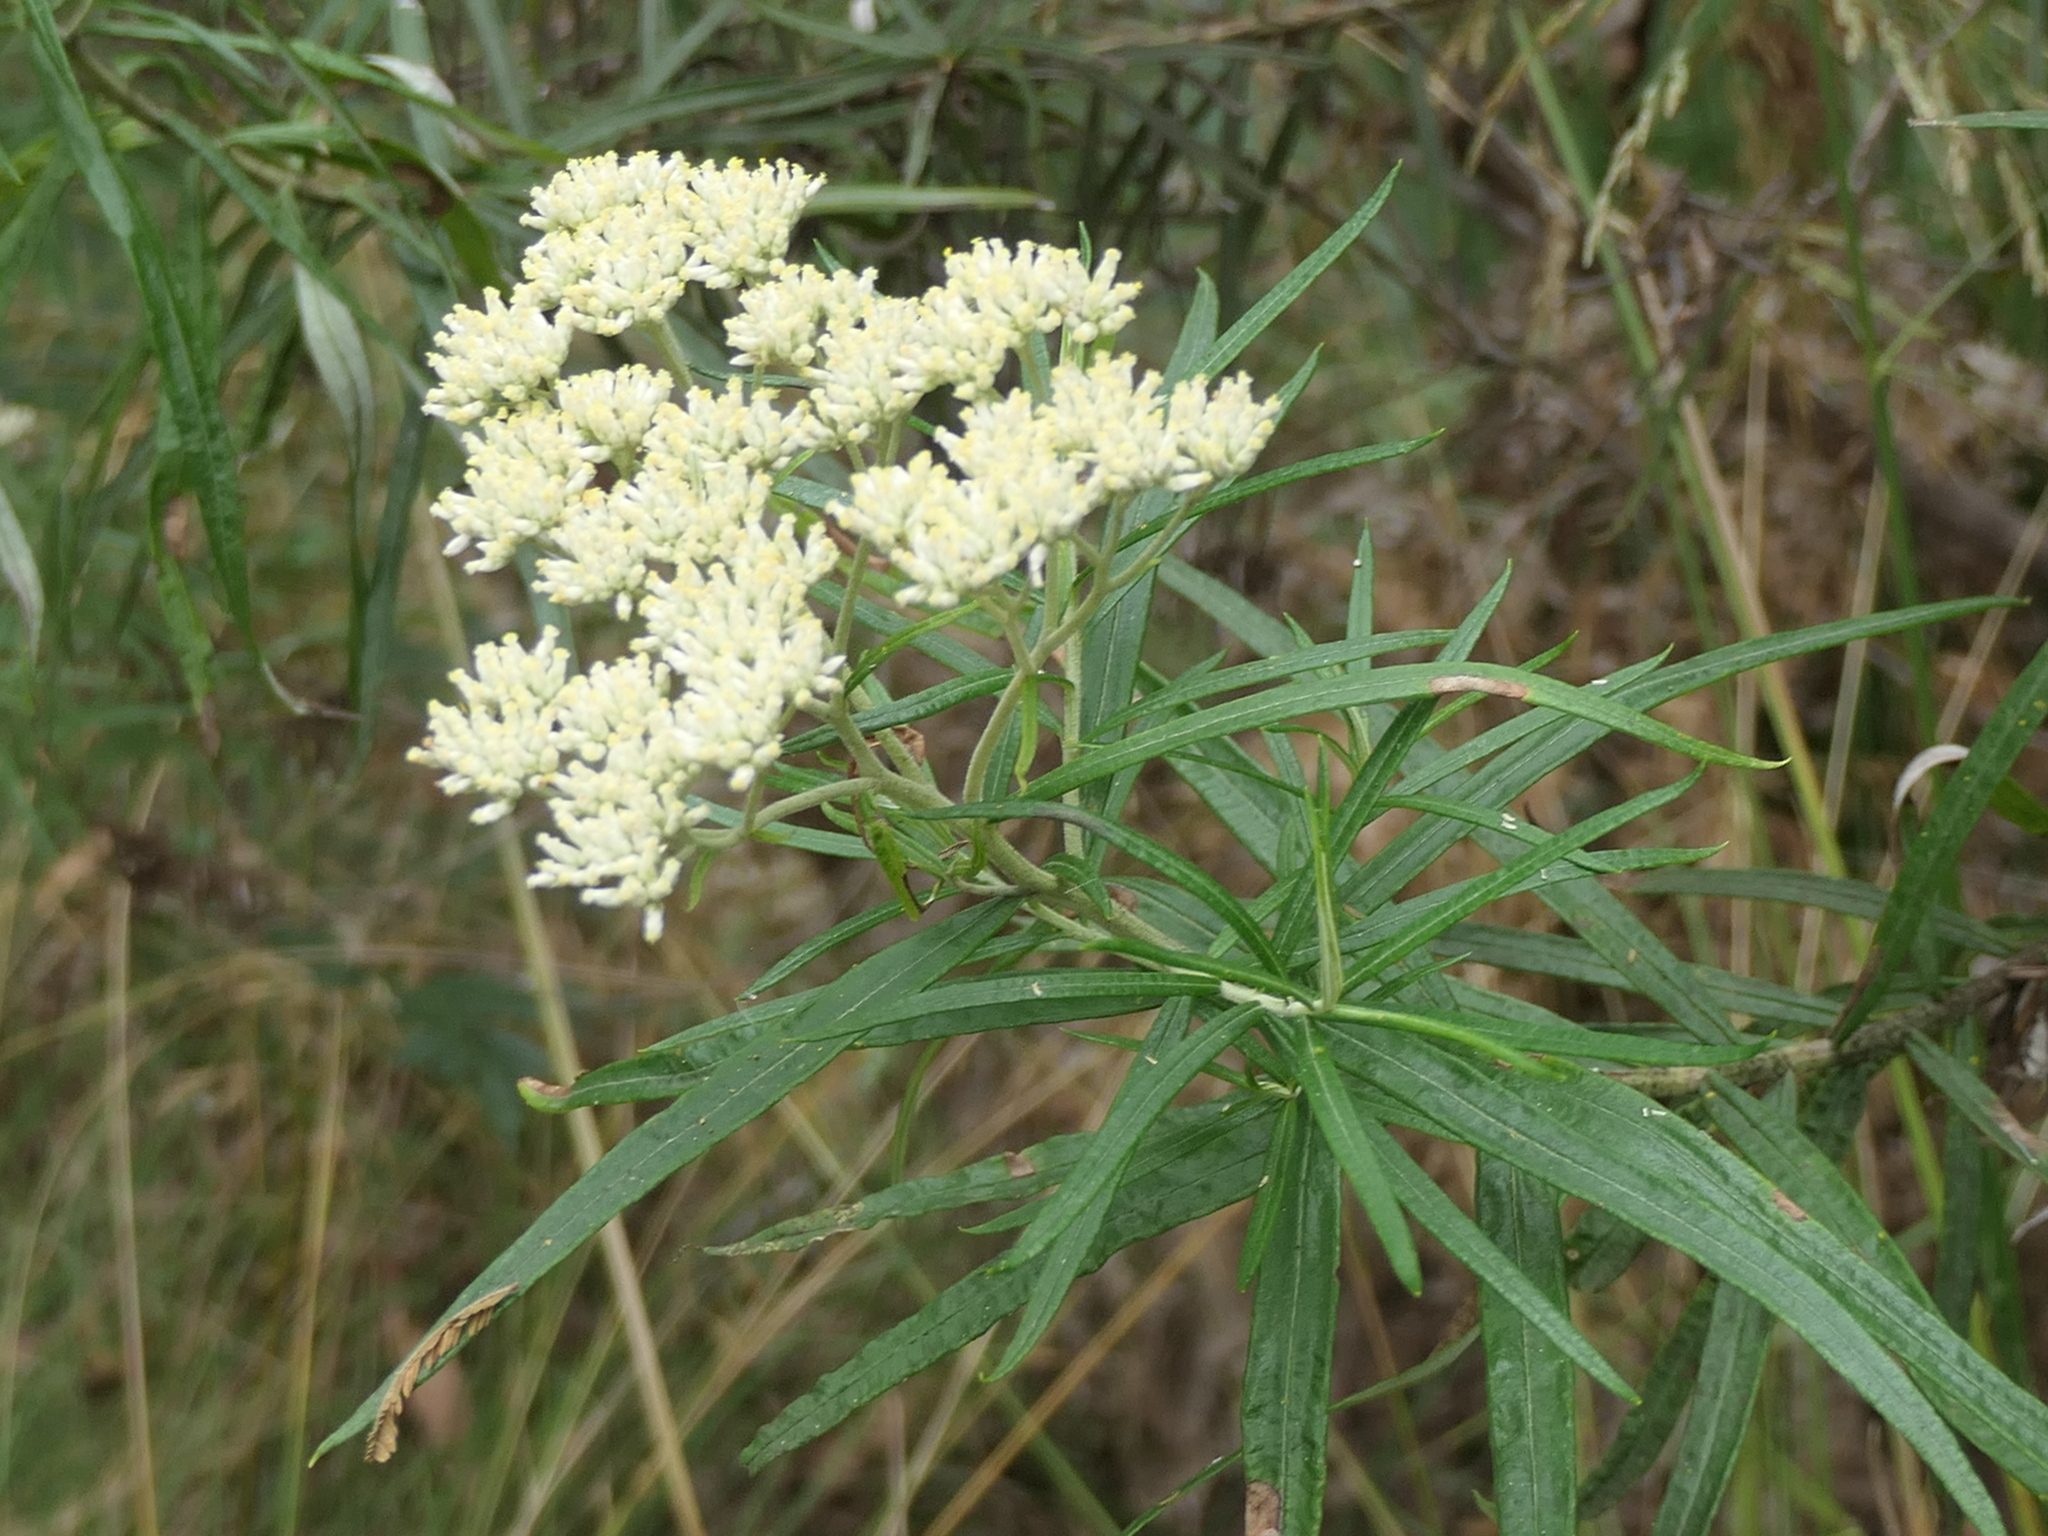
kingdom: Plantae
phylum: Tracheophyta
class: Magnoliopsida
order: Asterales
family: Asteraceae
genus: Cassinia
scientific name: Cassinia longifolia
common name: Longleaf-dogwood
